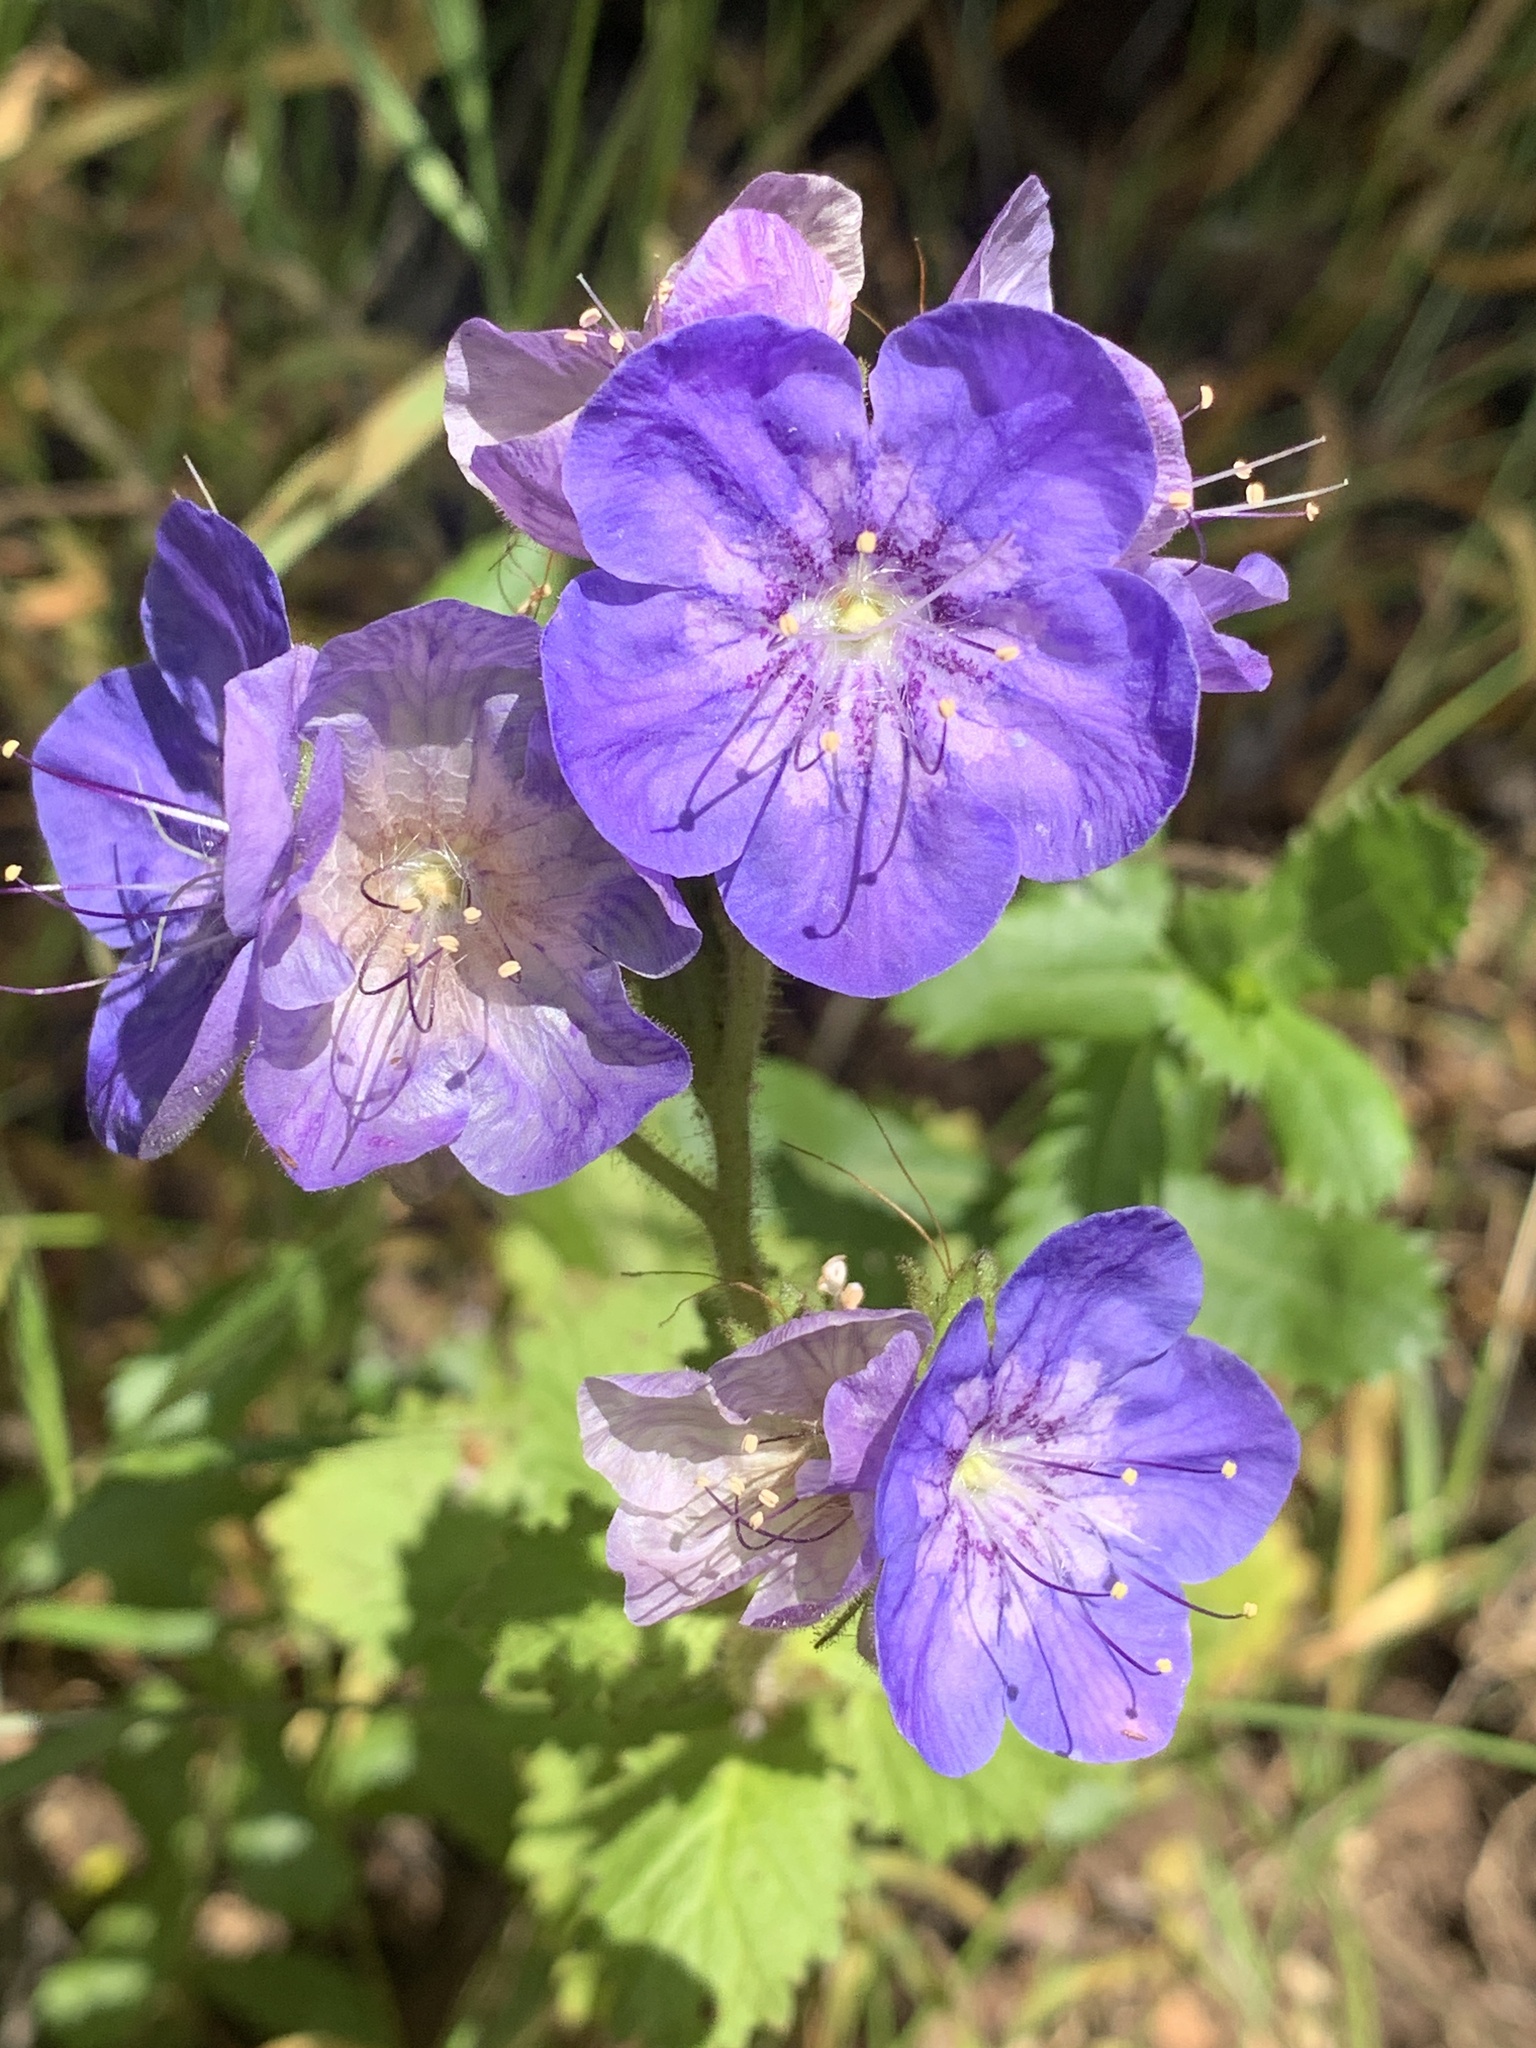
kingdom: Plantae
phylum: Tracheophyta
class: Magnoliopsida
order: Boraginales
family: Hydrophyllaceae
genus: Phacelia
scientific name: Phacelia grandiflora
